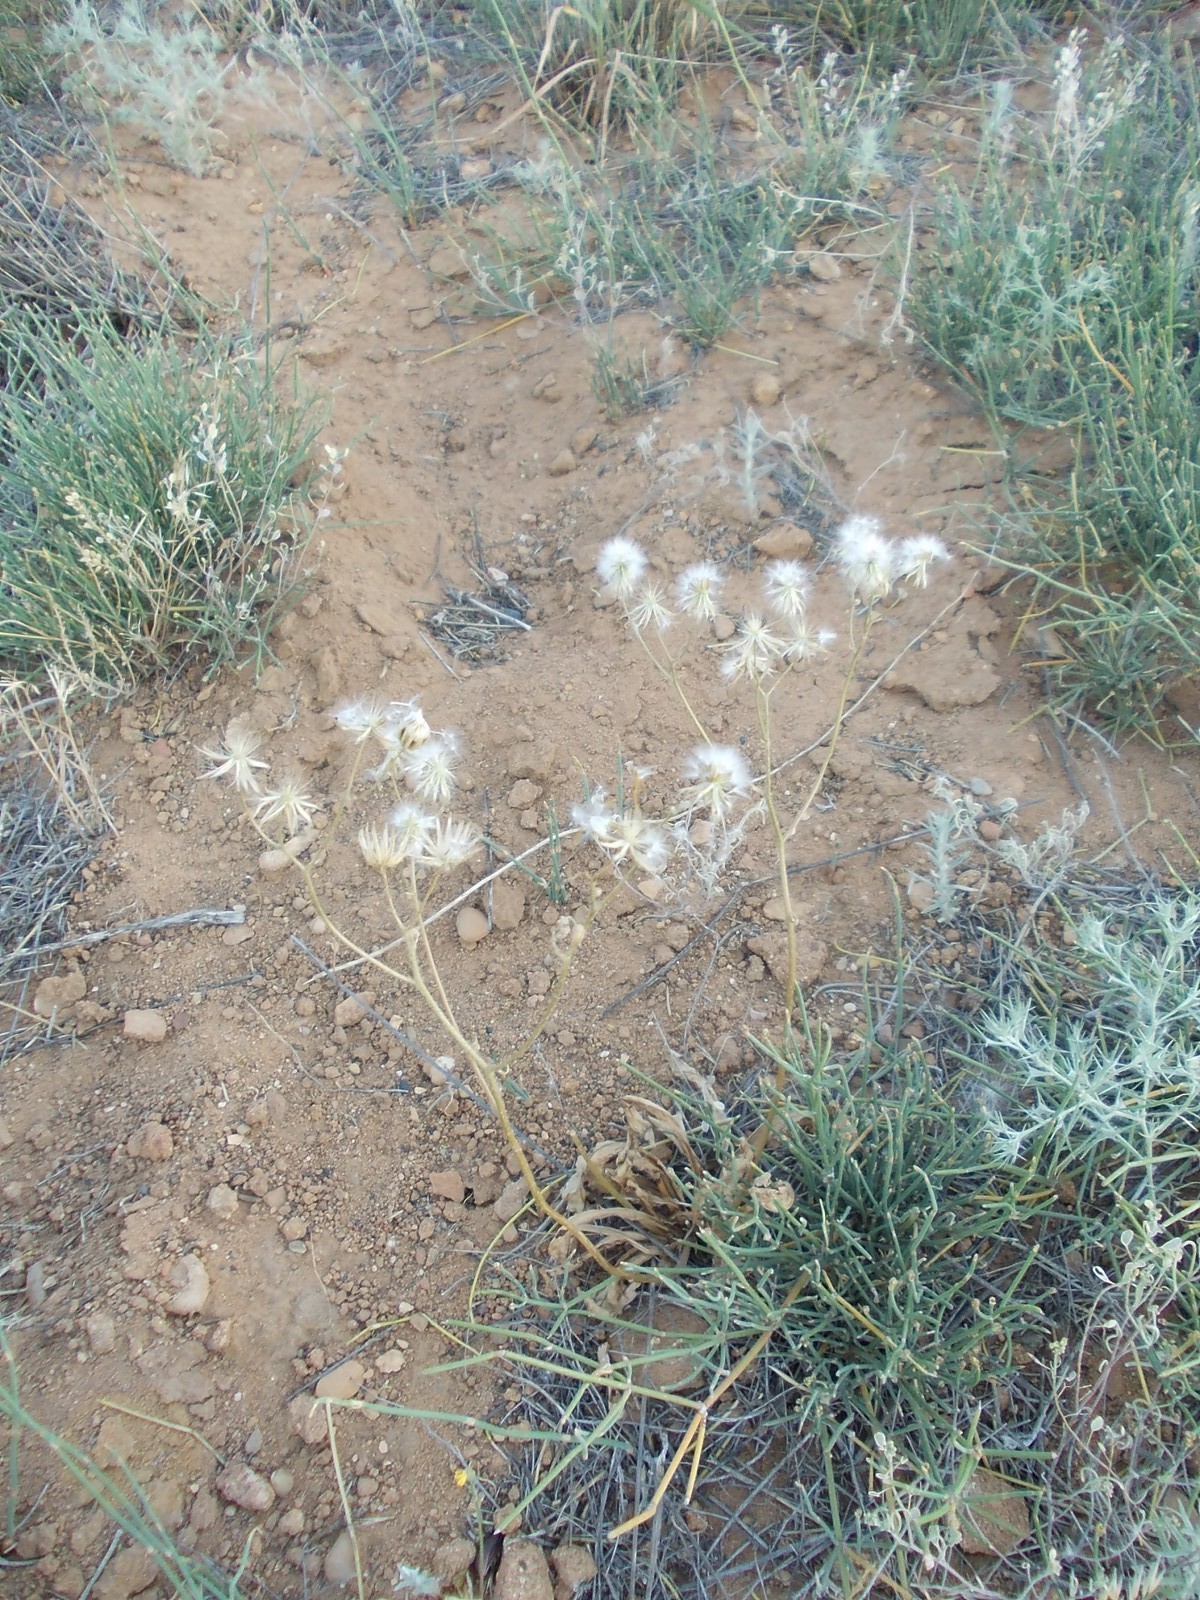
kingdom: Plantae
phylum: Tracheophyta
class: Magnoliopsida
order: Asterales
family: Asteraceae
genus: Crepis
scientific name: Crepis sancta
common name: Hawk's-beard
